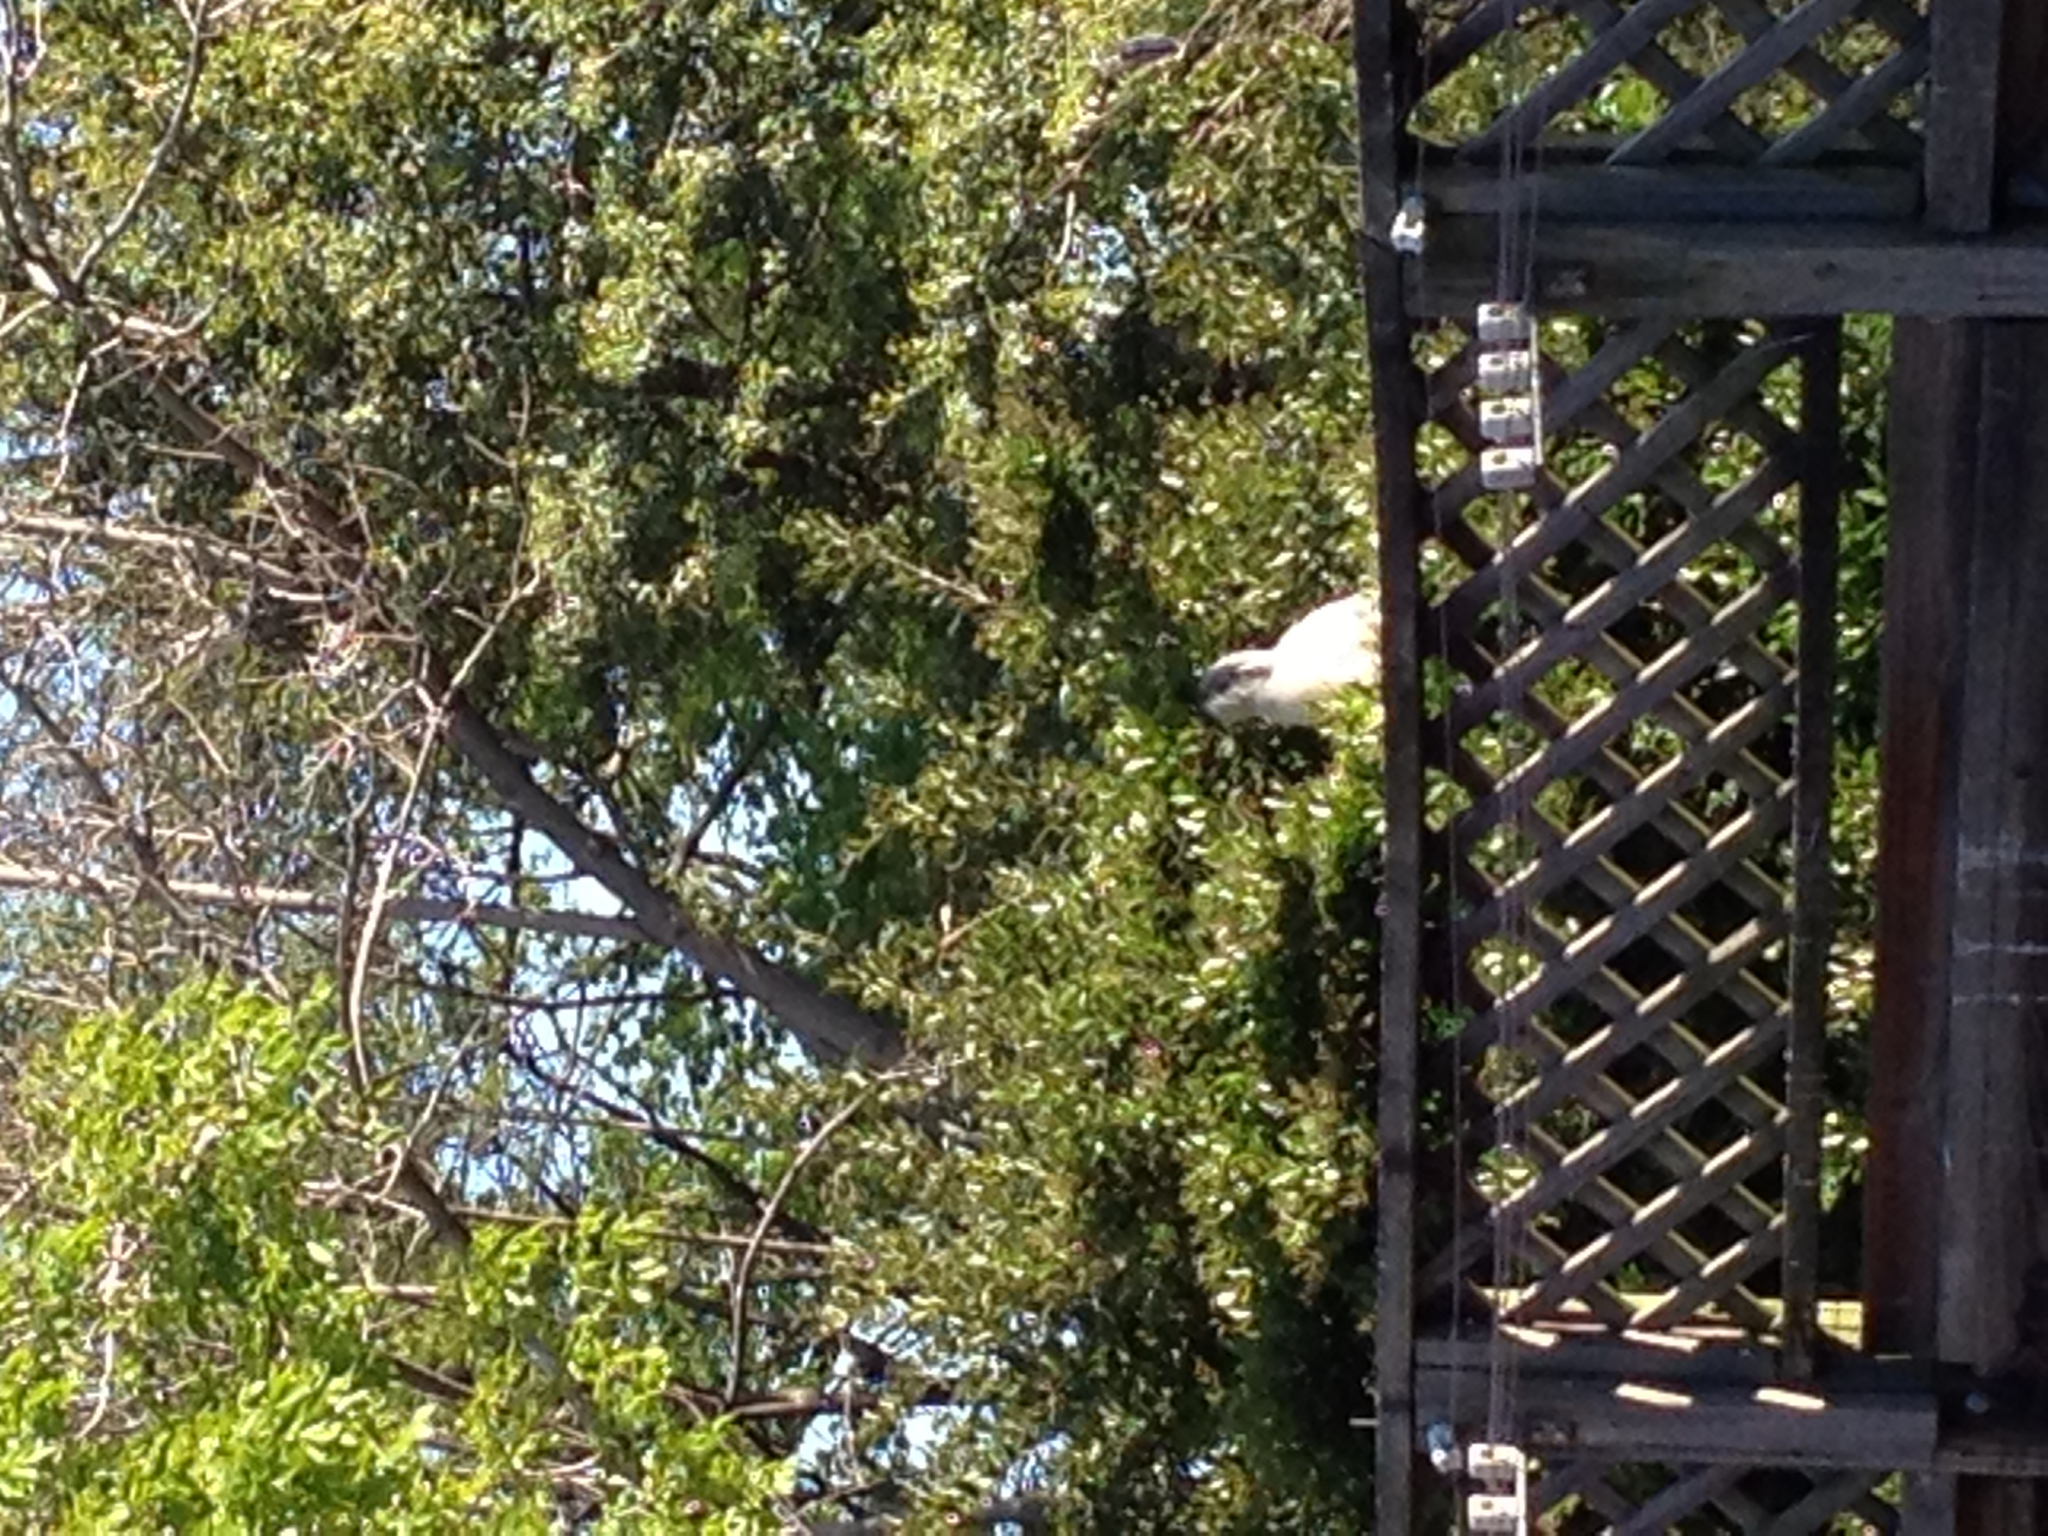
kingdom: Animalia
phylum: Chordata
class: Aves
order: Pelecaniformes
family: Ardeidae
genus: Nycticorax
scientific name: Nycticorax nycticorax
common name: Black-crowned night heron
